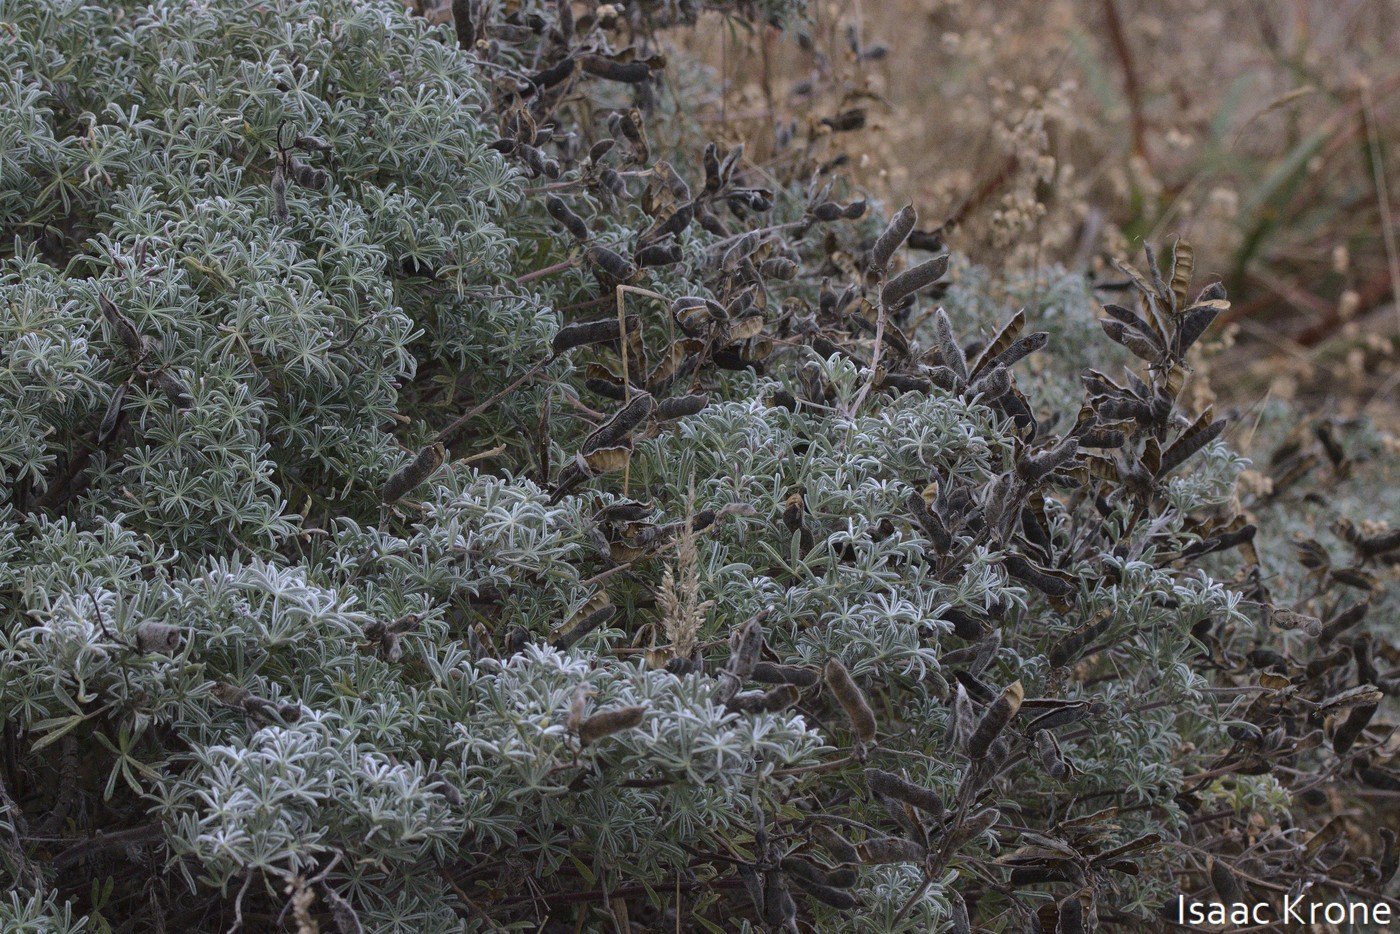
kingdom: Plantae
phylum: Tracheophyta
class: Magnoliopsida
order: Fabales
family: Fabaceae
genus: Lupinus
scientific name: Lupinus arboreus
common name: Yellow bush lupine
